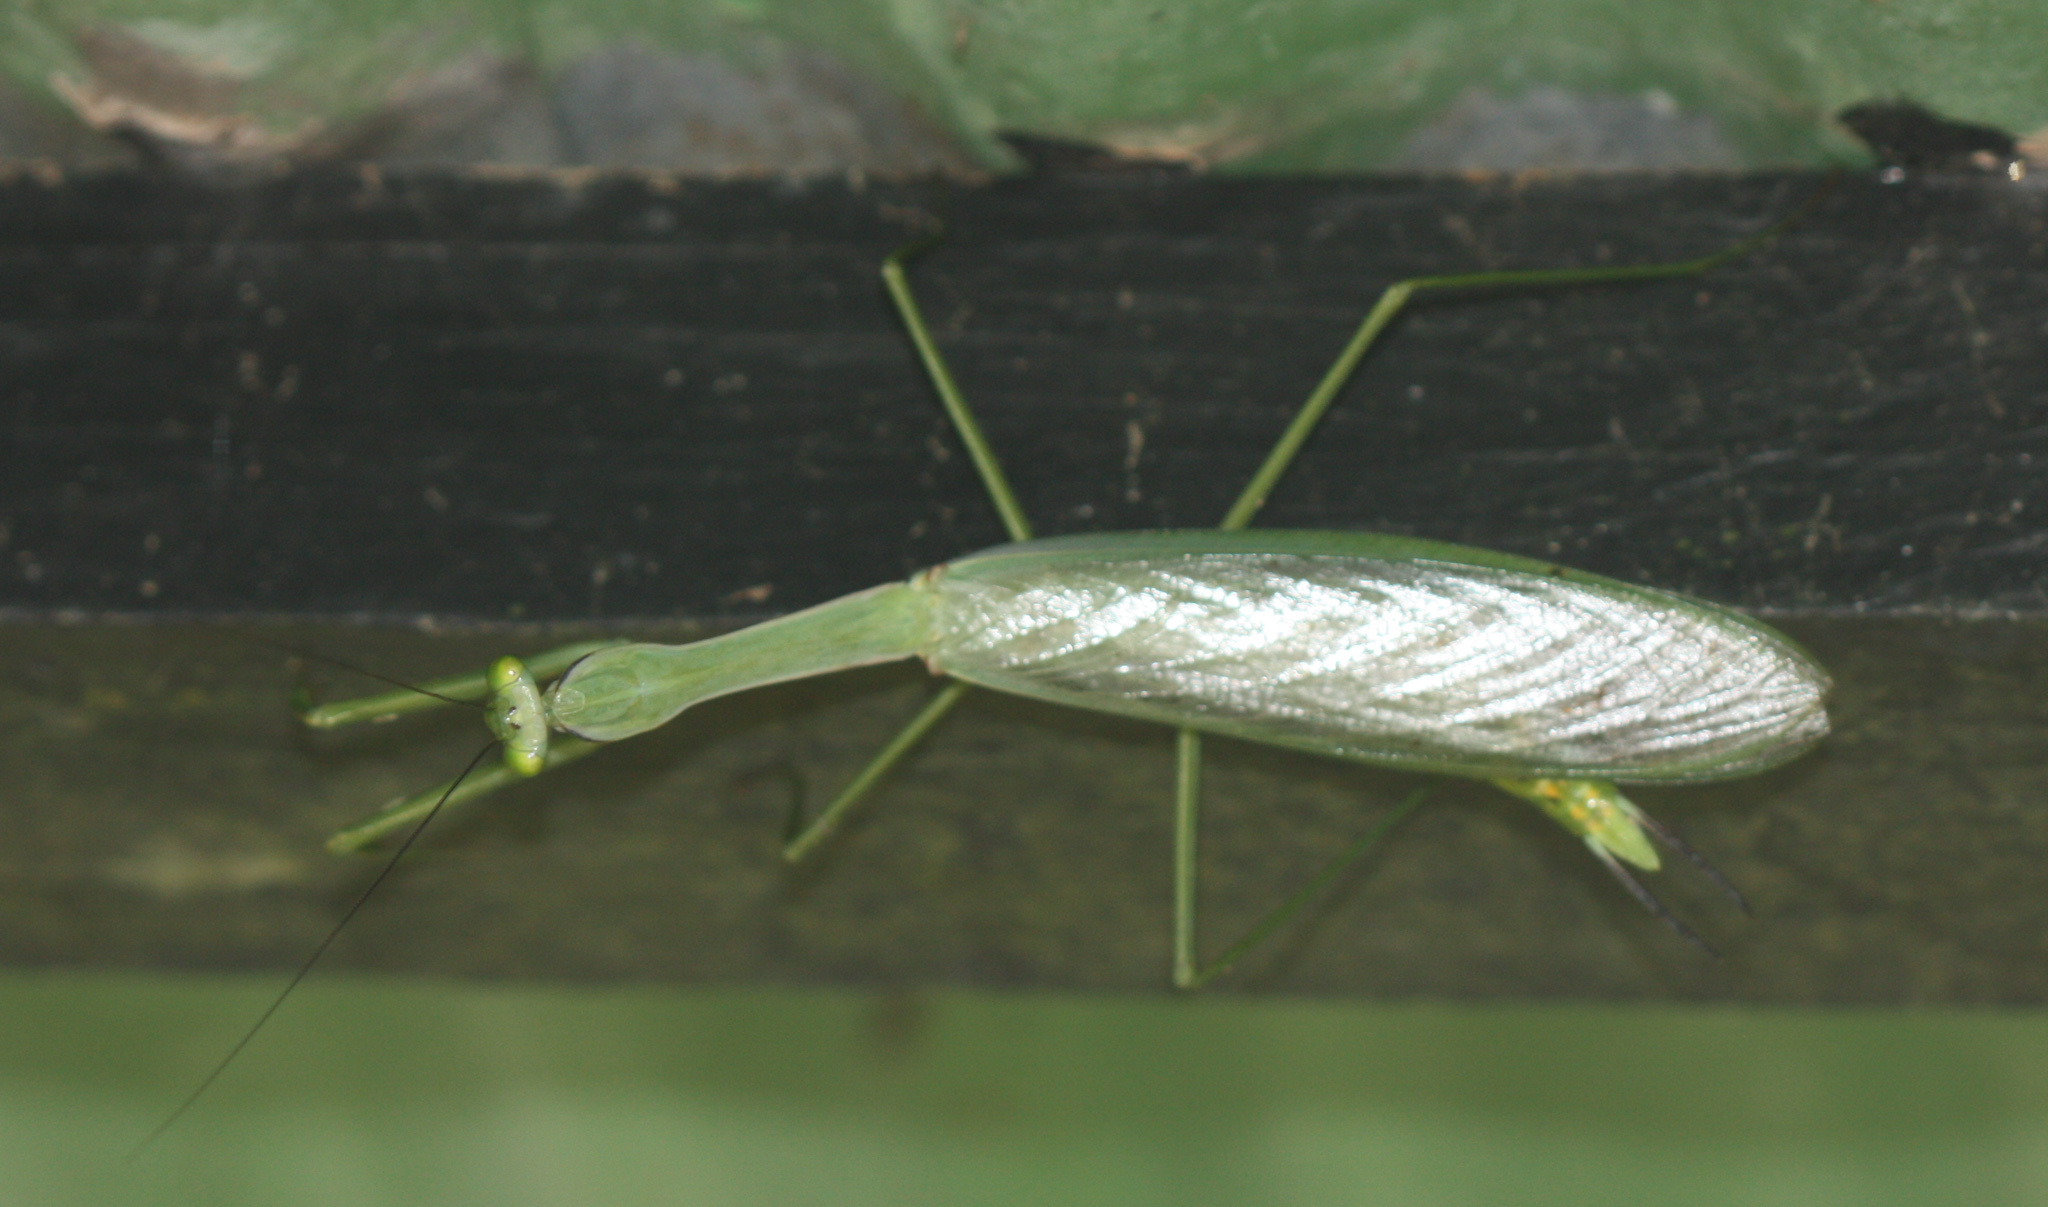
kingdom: Animalia
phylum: Arthropoda
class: Insecta
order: Mantodea
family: Photinaidae
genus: Macromantis
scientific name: Macromantis nicaraguae
